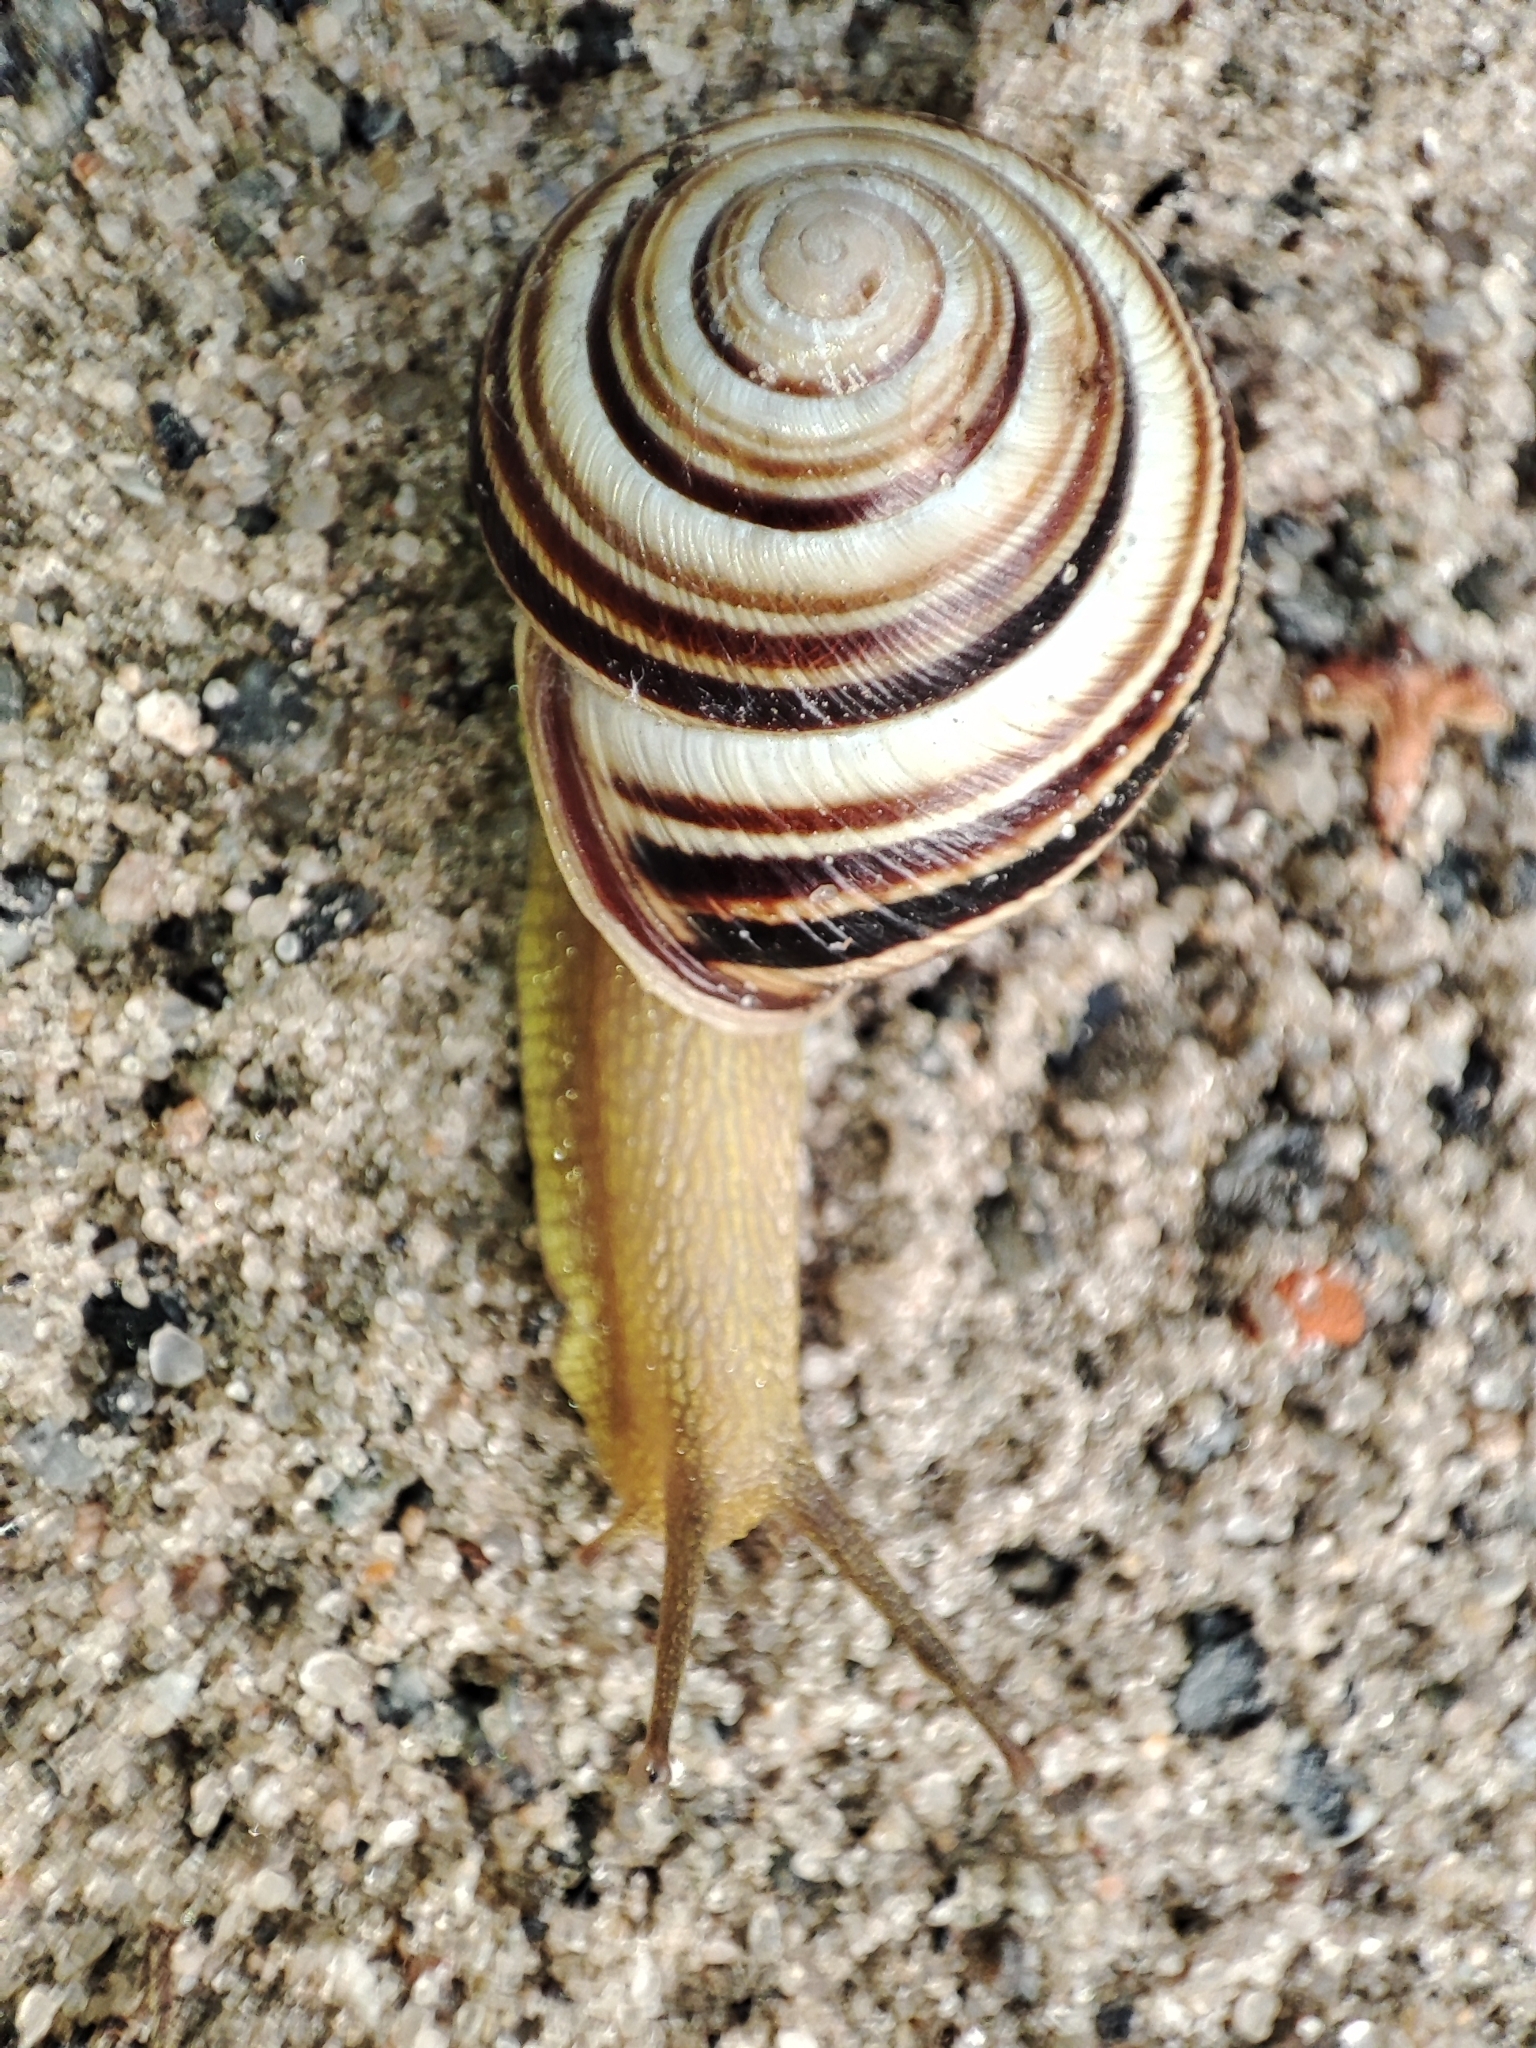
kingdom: Animalia
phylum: Mollusca
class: Gastropoda
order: Stylommatophora
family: Helicidae
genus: Caucasotachea
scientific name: Caucasotachea vindobonensis
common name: European helicid land snail
